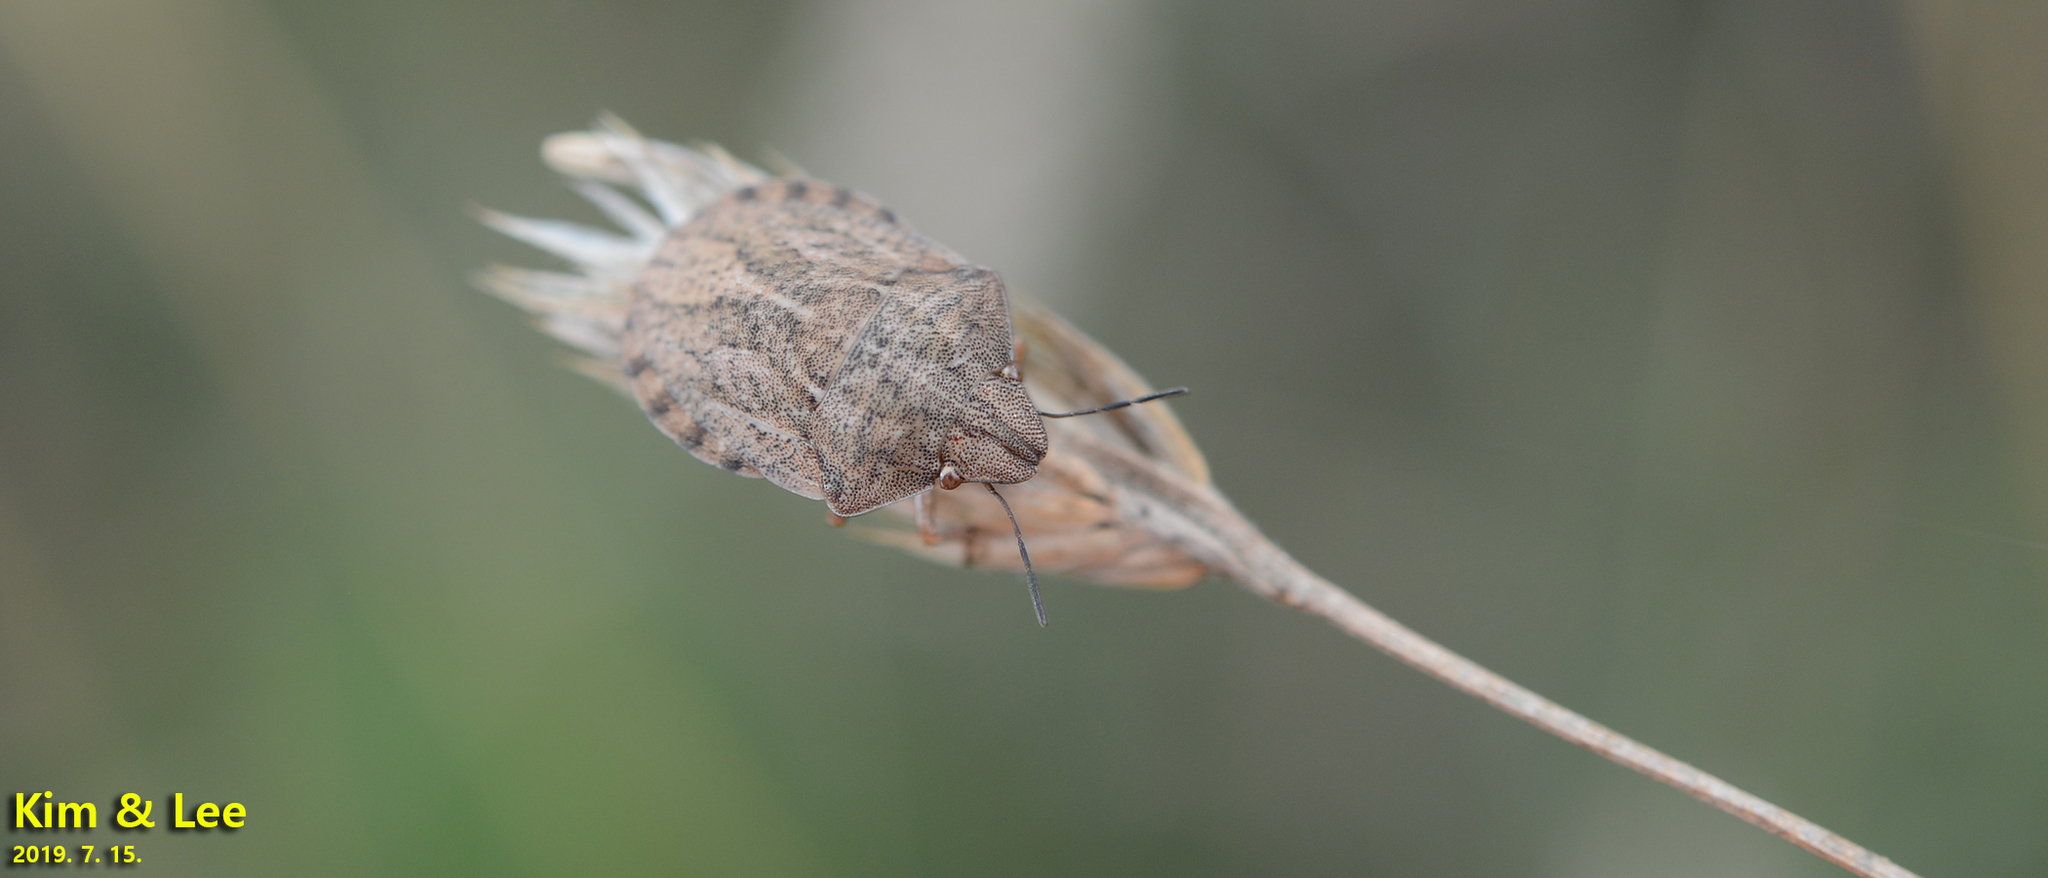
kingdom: Animalia
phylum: Arthropoda
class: Insecta
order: Hemiptera
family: Pentatomidae
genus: Aelia
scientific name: Aelia
